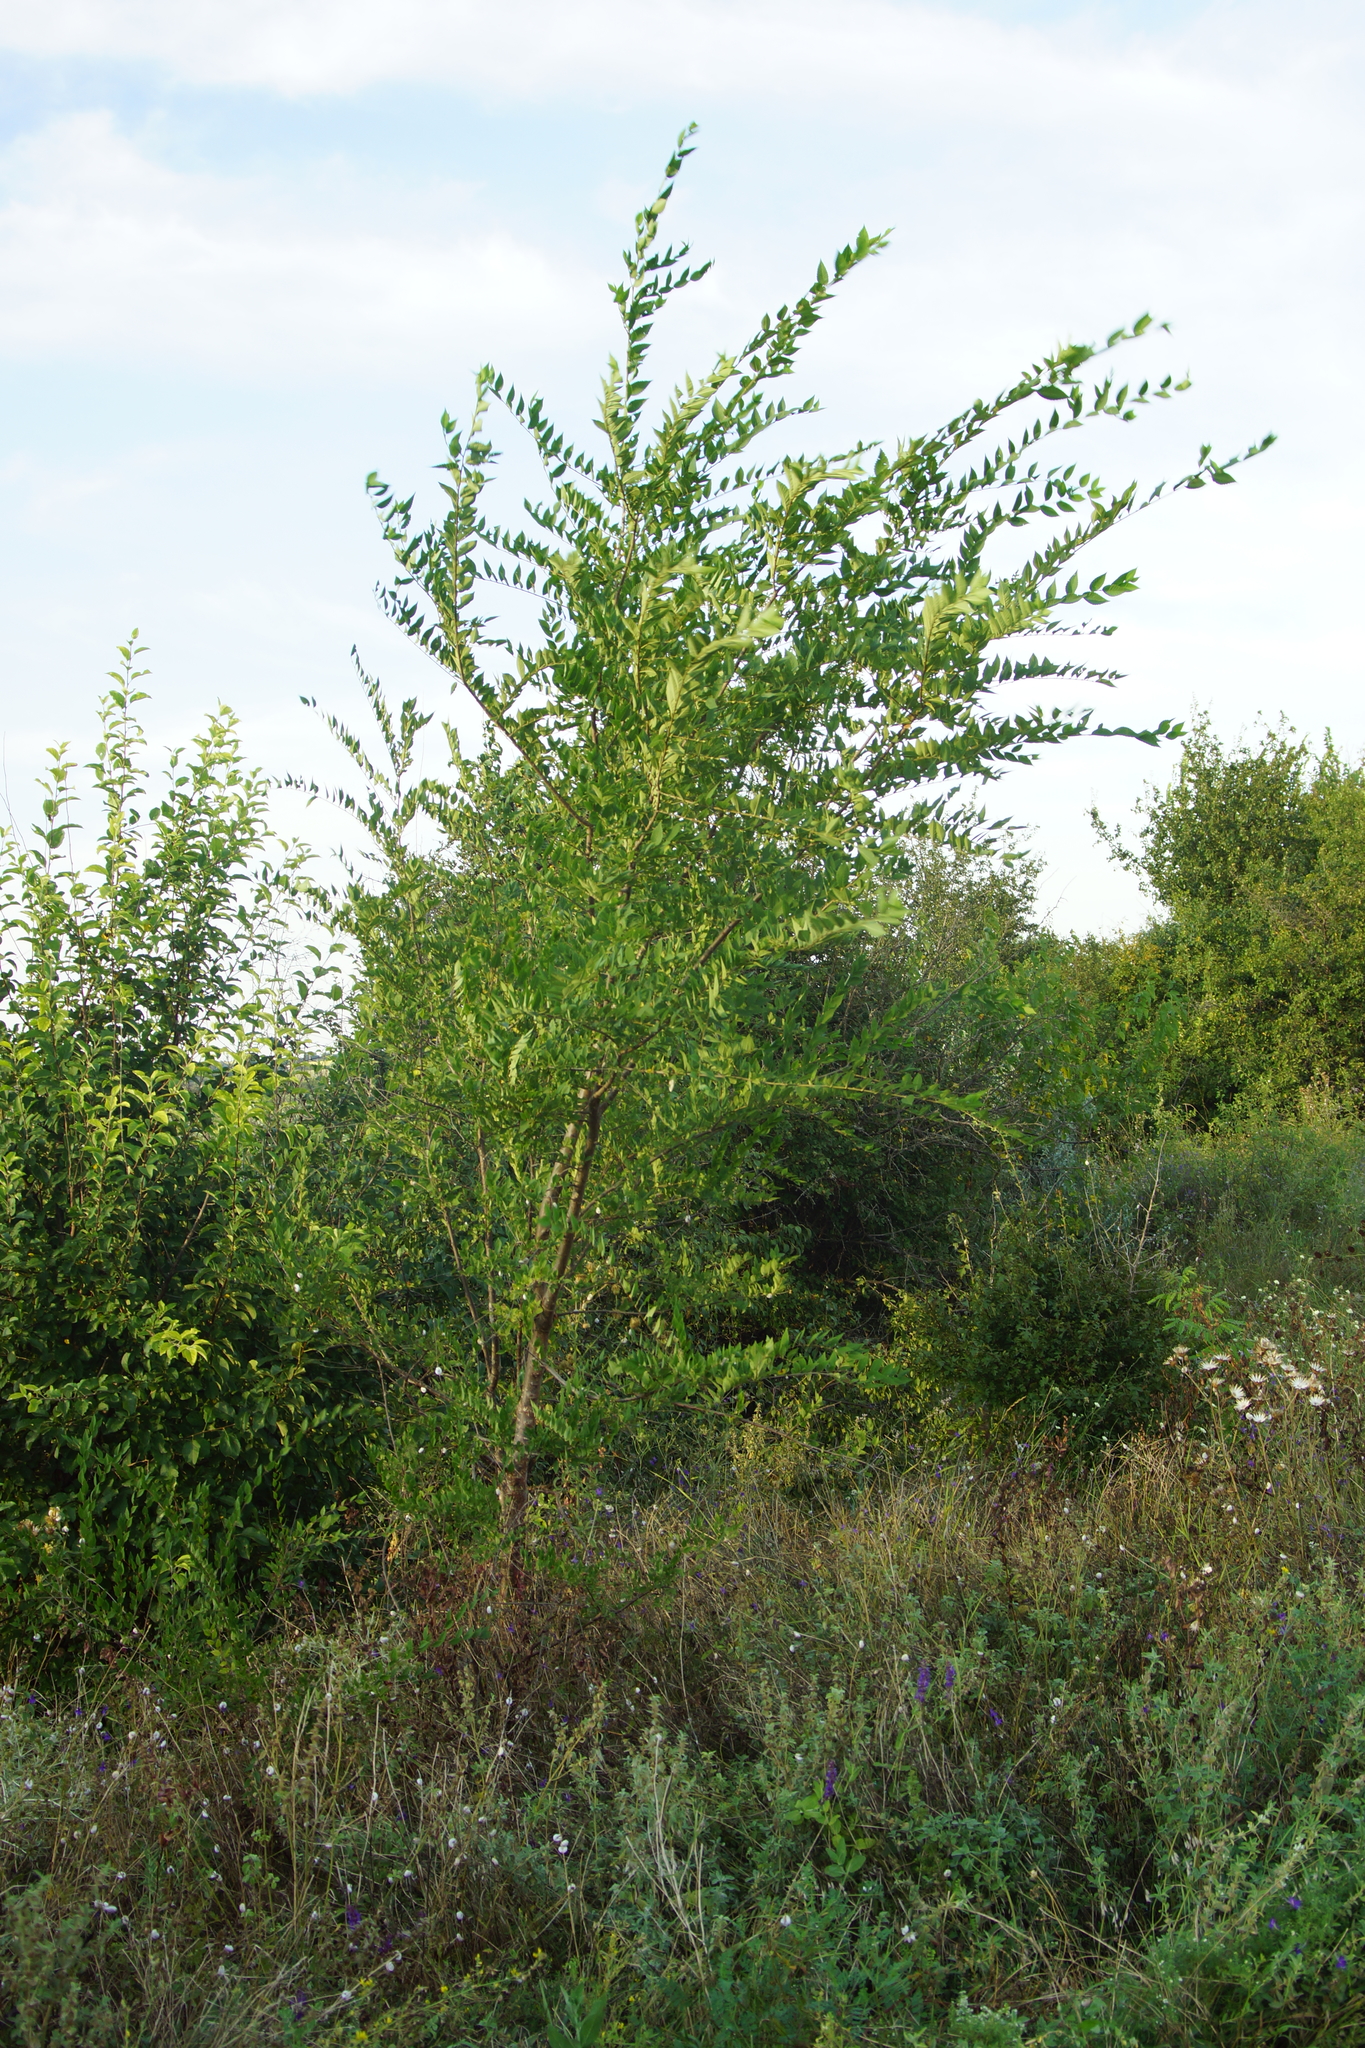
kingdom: Plantae
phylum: Tracheophyta
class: Magnoliopsida
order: Rosales
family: Ulmaceae
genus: Ulmus
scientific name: Ulmus pumila
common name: Siberian elm
